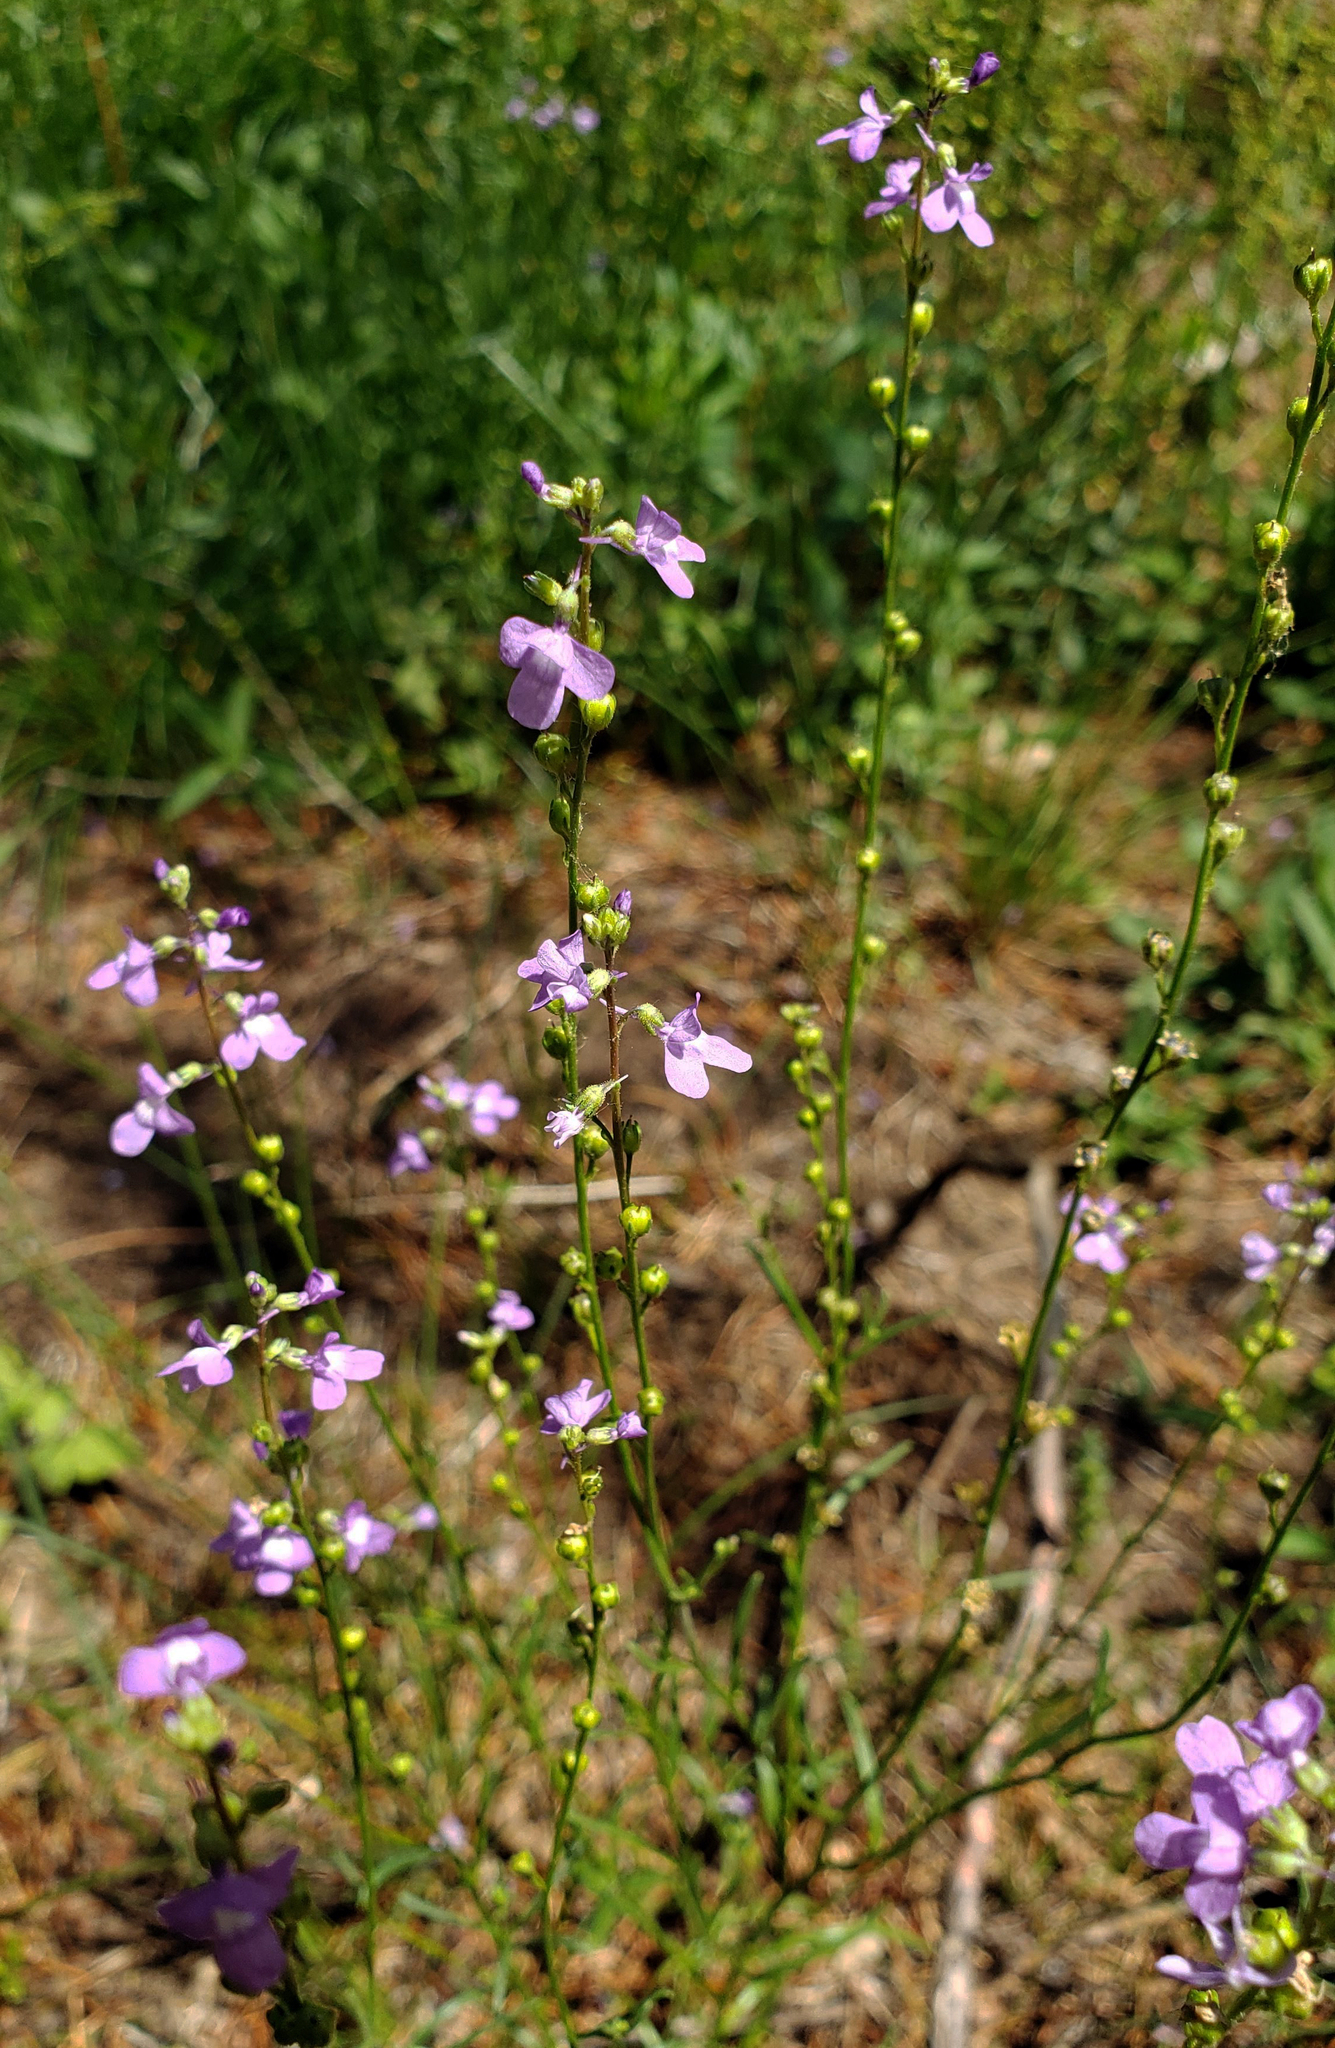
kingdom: Plantae
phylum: Tracheophyta
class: Magnoliopsida
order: Lamiales
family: Plantaginaceae
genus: Nuttallanthus
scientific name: Nuttallanthus canadensis
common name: Blue toadflax
